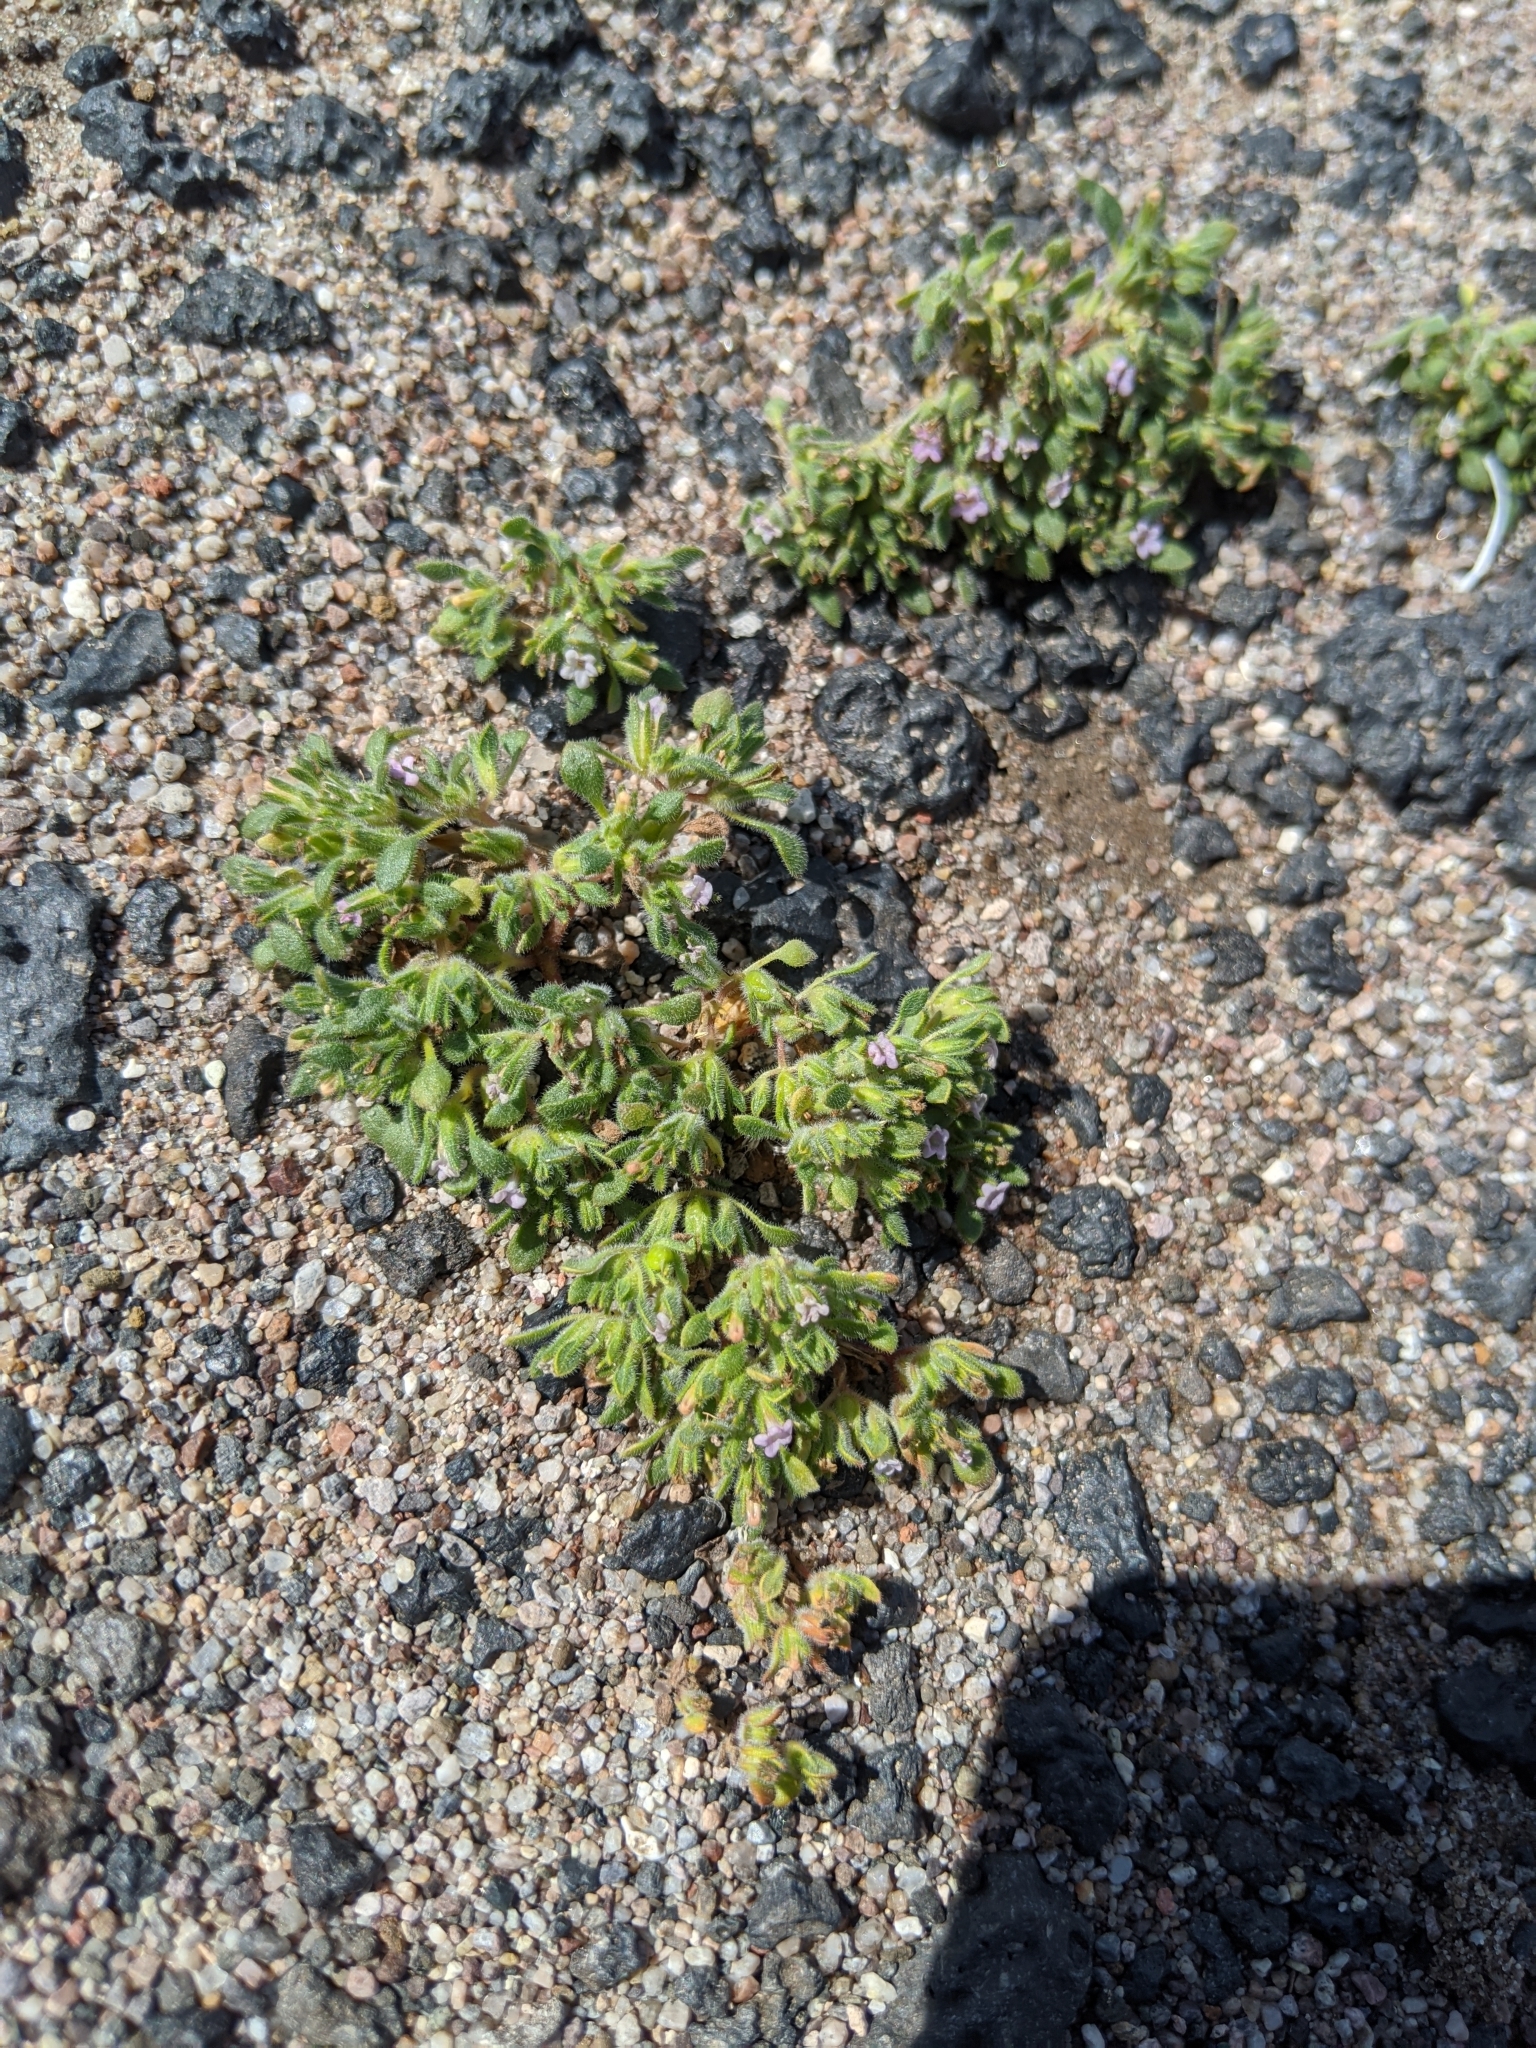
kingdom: Plantae
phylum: Tracheophyta
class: Magnoliopsida
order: Boraginales
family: Namaceae
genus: Nama
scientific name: Nama pusilla
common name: Eggleaf nama
